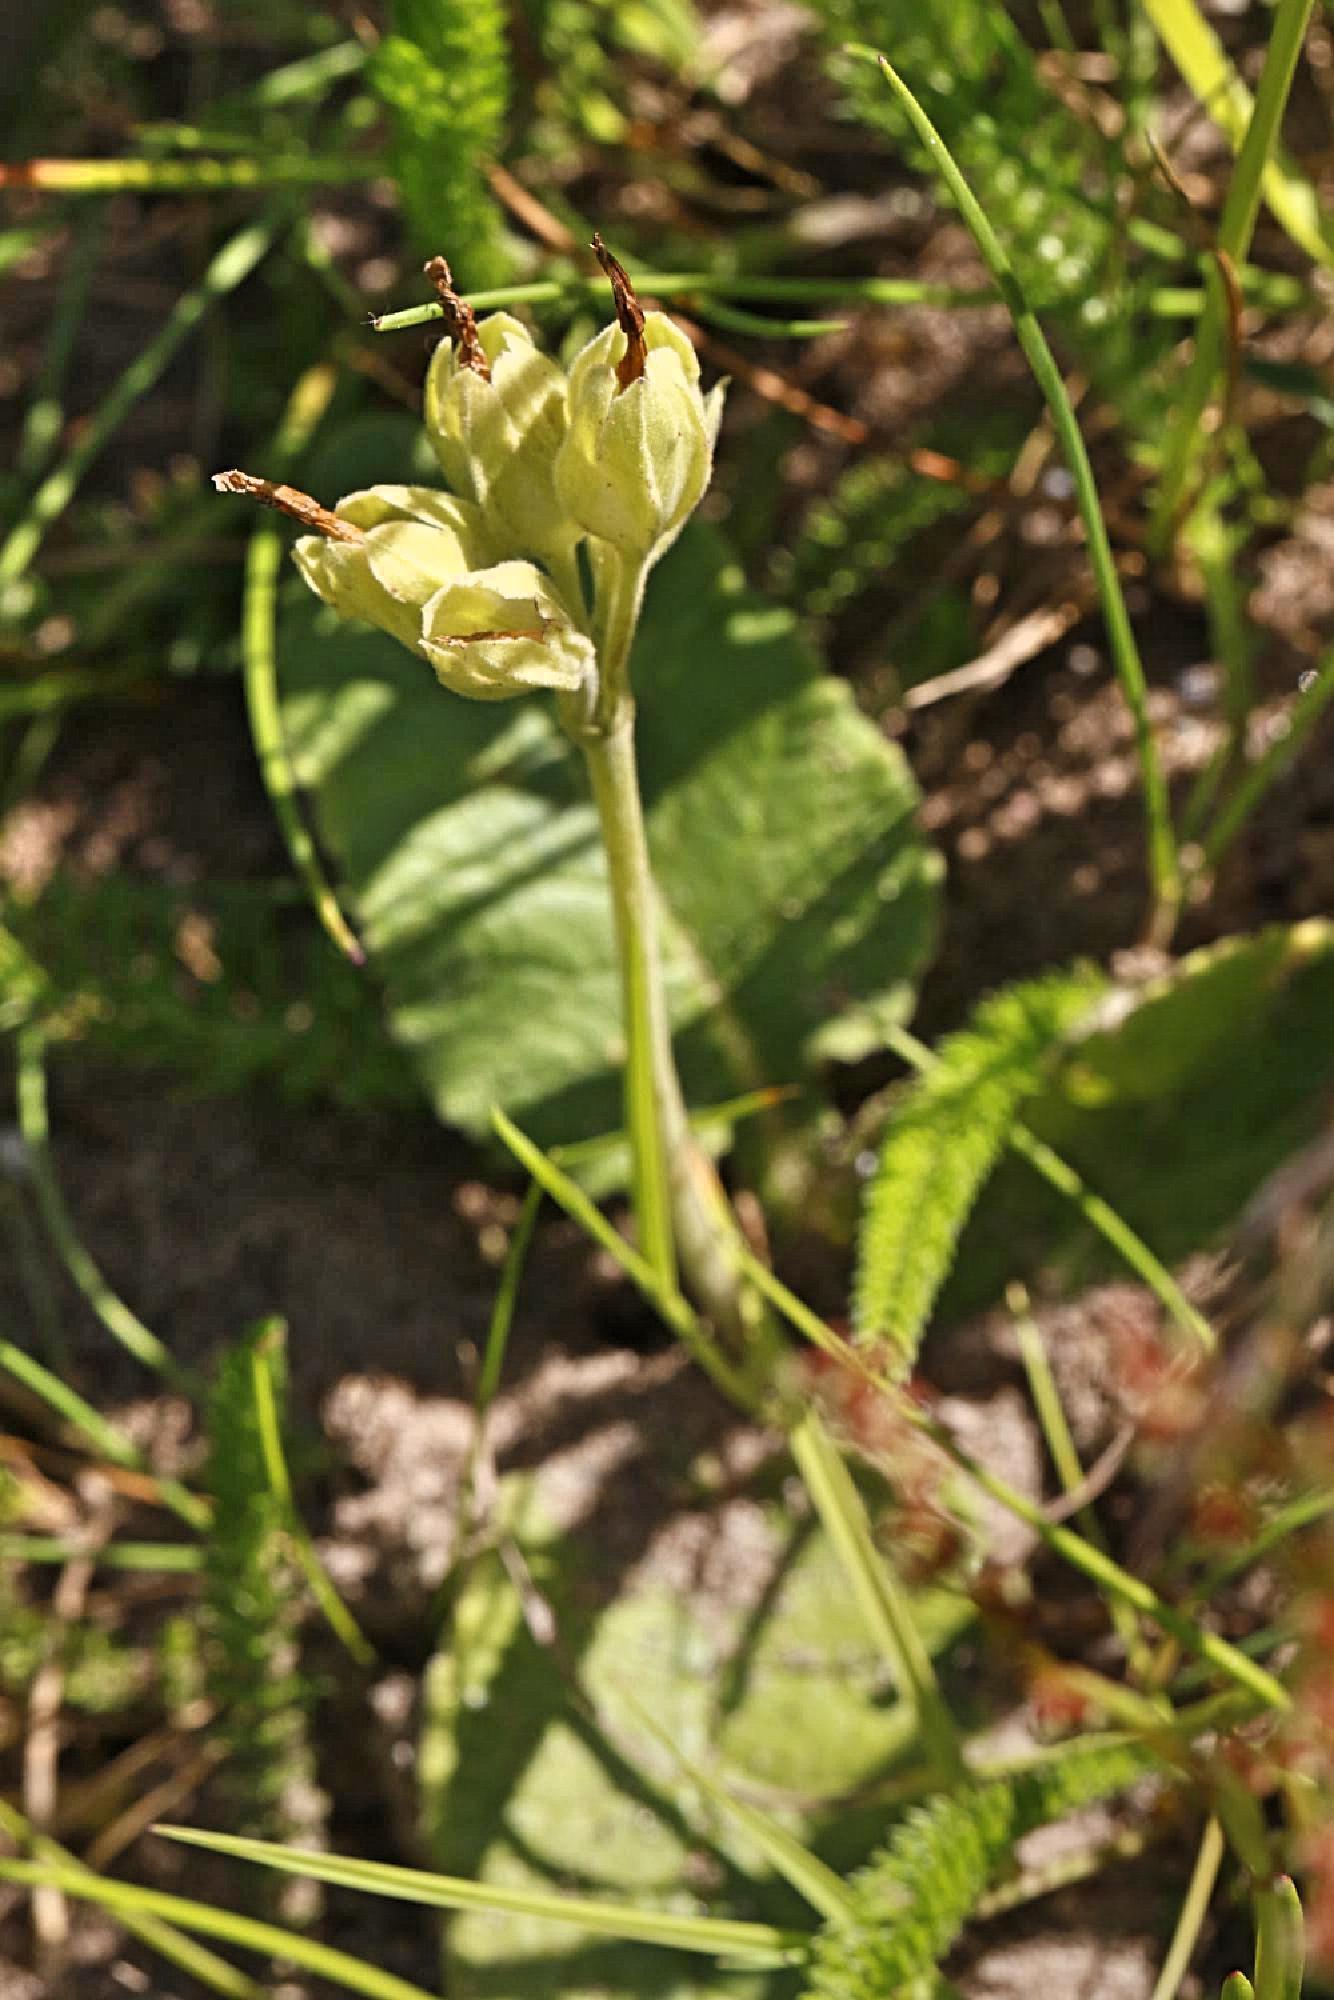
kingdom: Plantae
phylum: Tracheophyta
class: Magnoliopsida
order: Ericales
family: Primulaceae
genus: Primula
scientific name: Primula veris
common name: Cowslip
